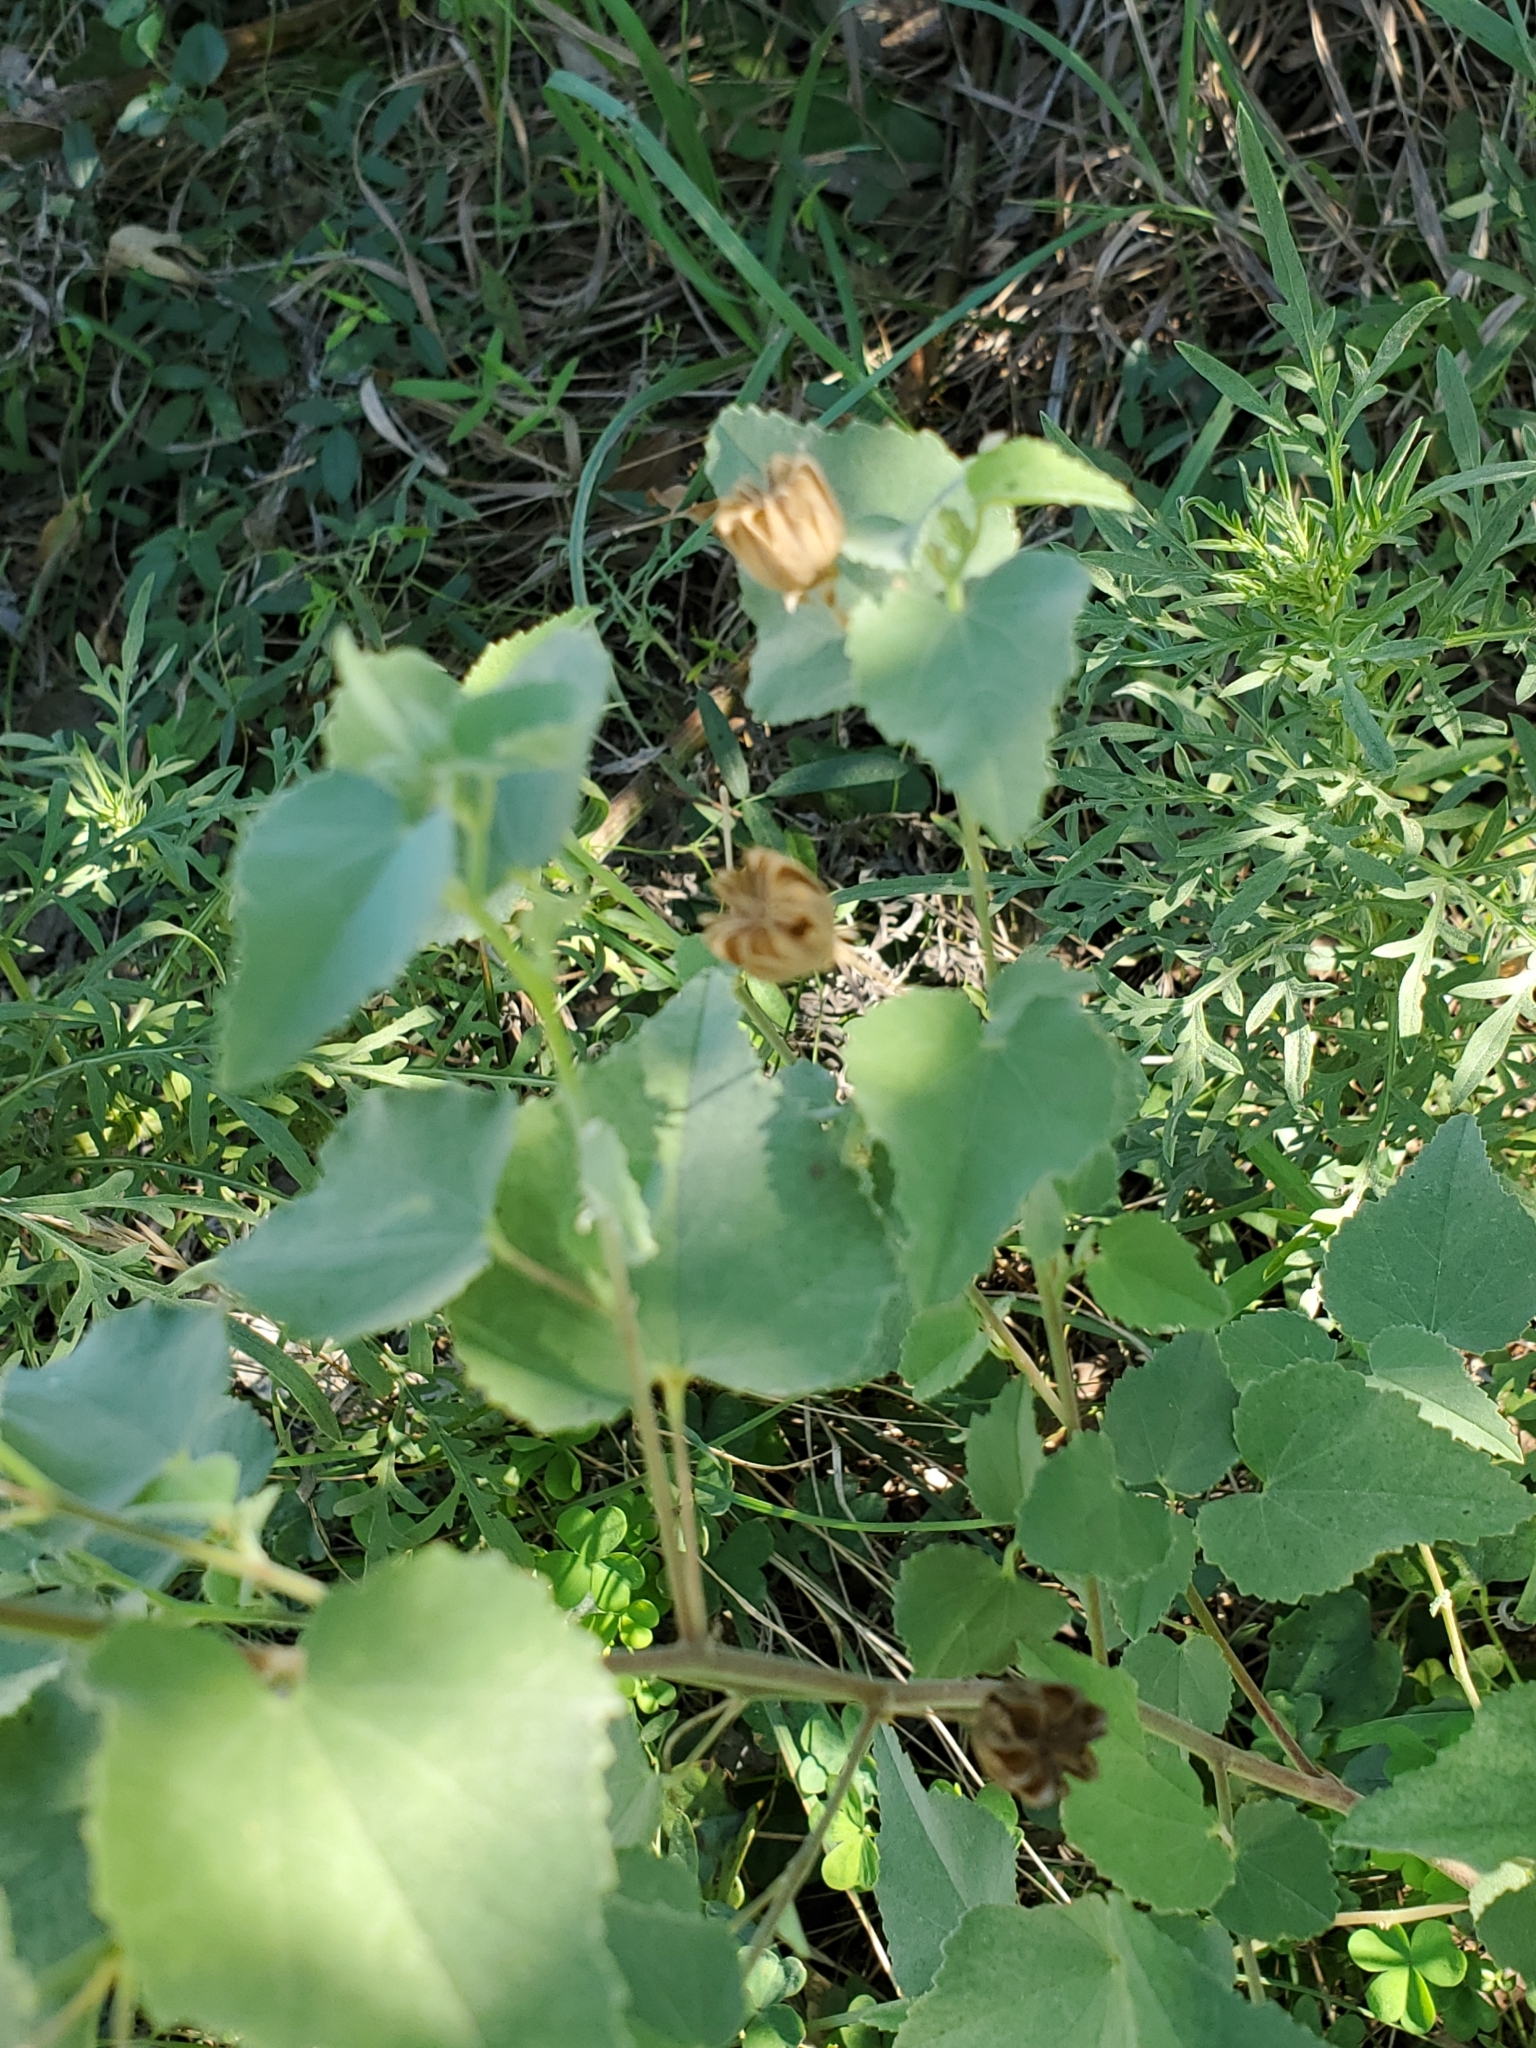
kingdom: Plantae
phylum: Tracheophyta
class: Magnoliopsida
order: Malvales
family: Malvaceae
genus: Abutilon
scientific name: Abutilon fruticosum
